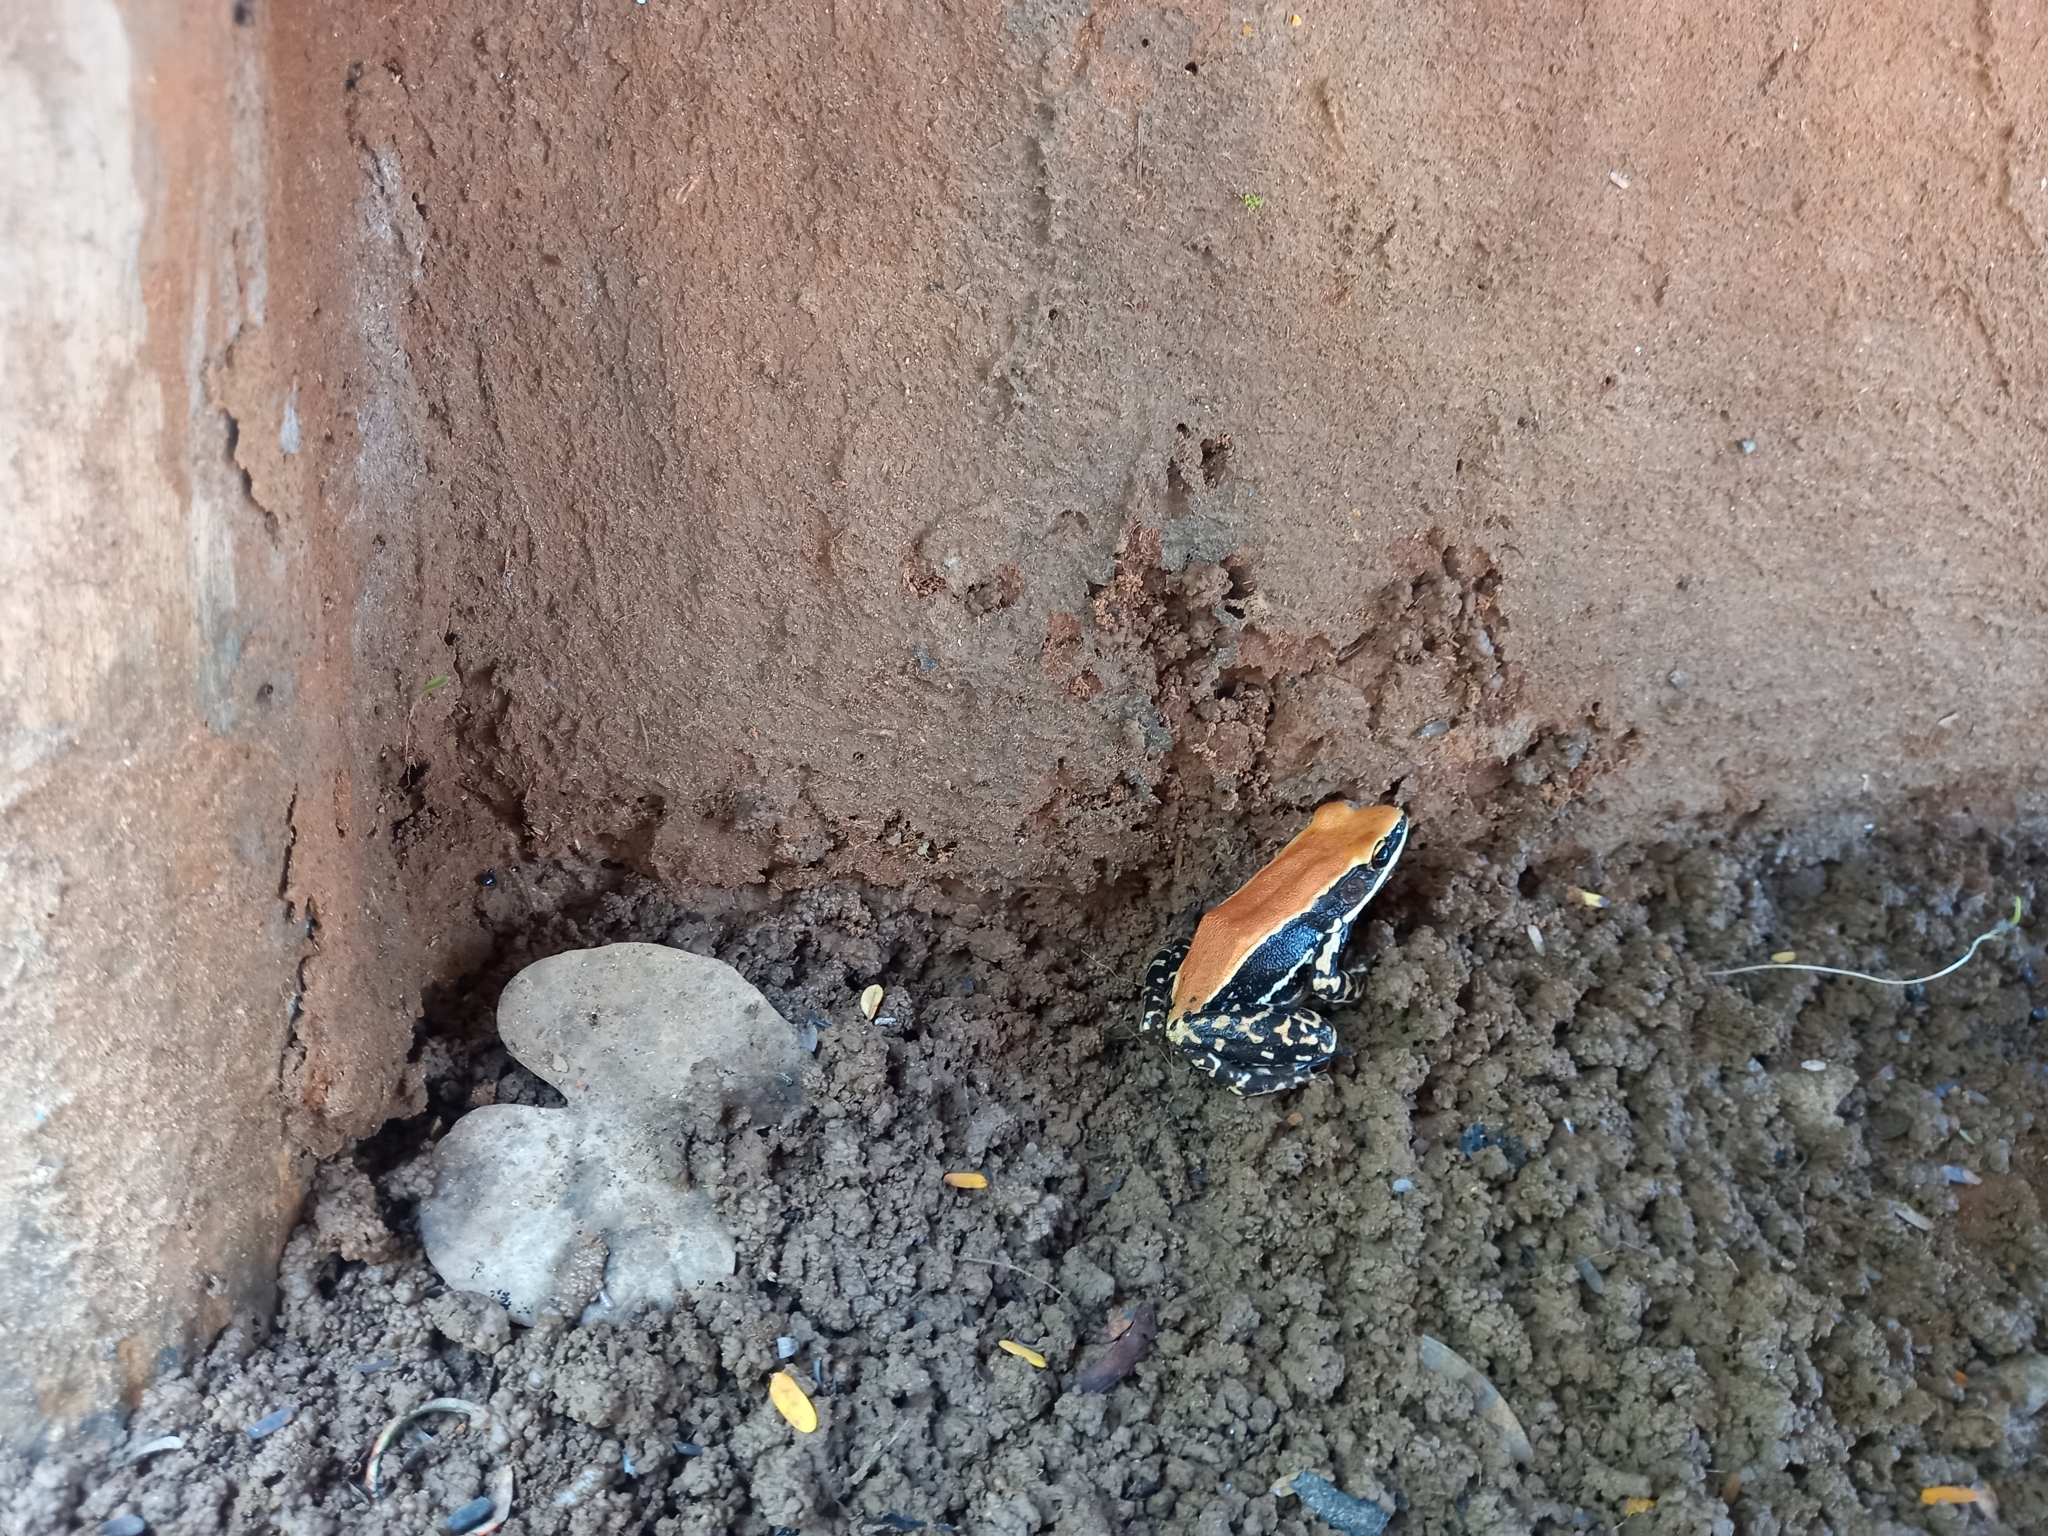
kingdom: Animalia
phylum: Chordata
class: Amphibia
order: Anura
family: Ranidae
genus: Hydrophylax
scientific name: Hydrophylax bahuvistara
